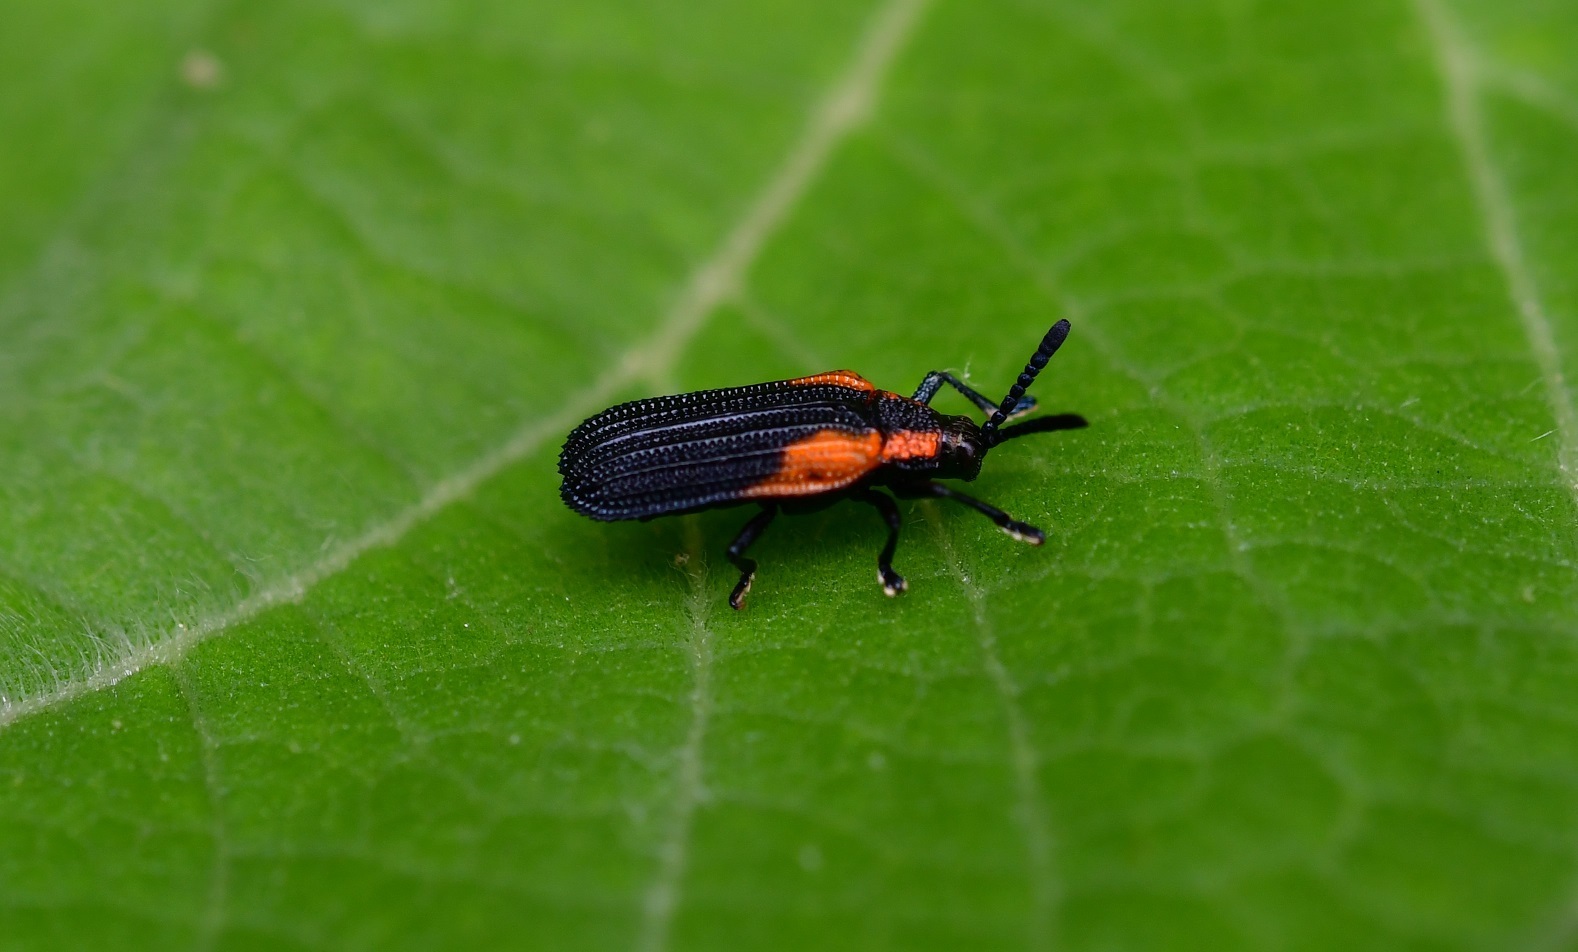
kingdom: Animalia
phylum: Arthropoda
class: Insecta
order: Coleoptera
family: Chrysomelidae
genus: Pentispa
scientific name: Pentispa chevrolati
